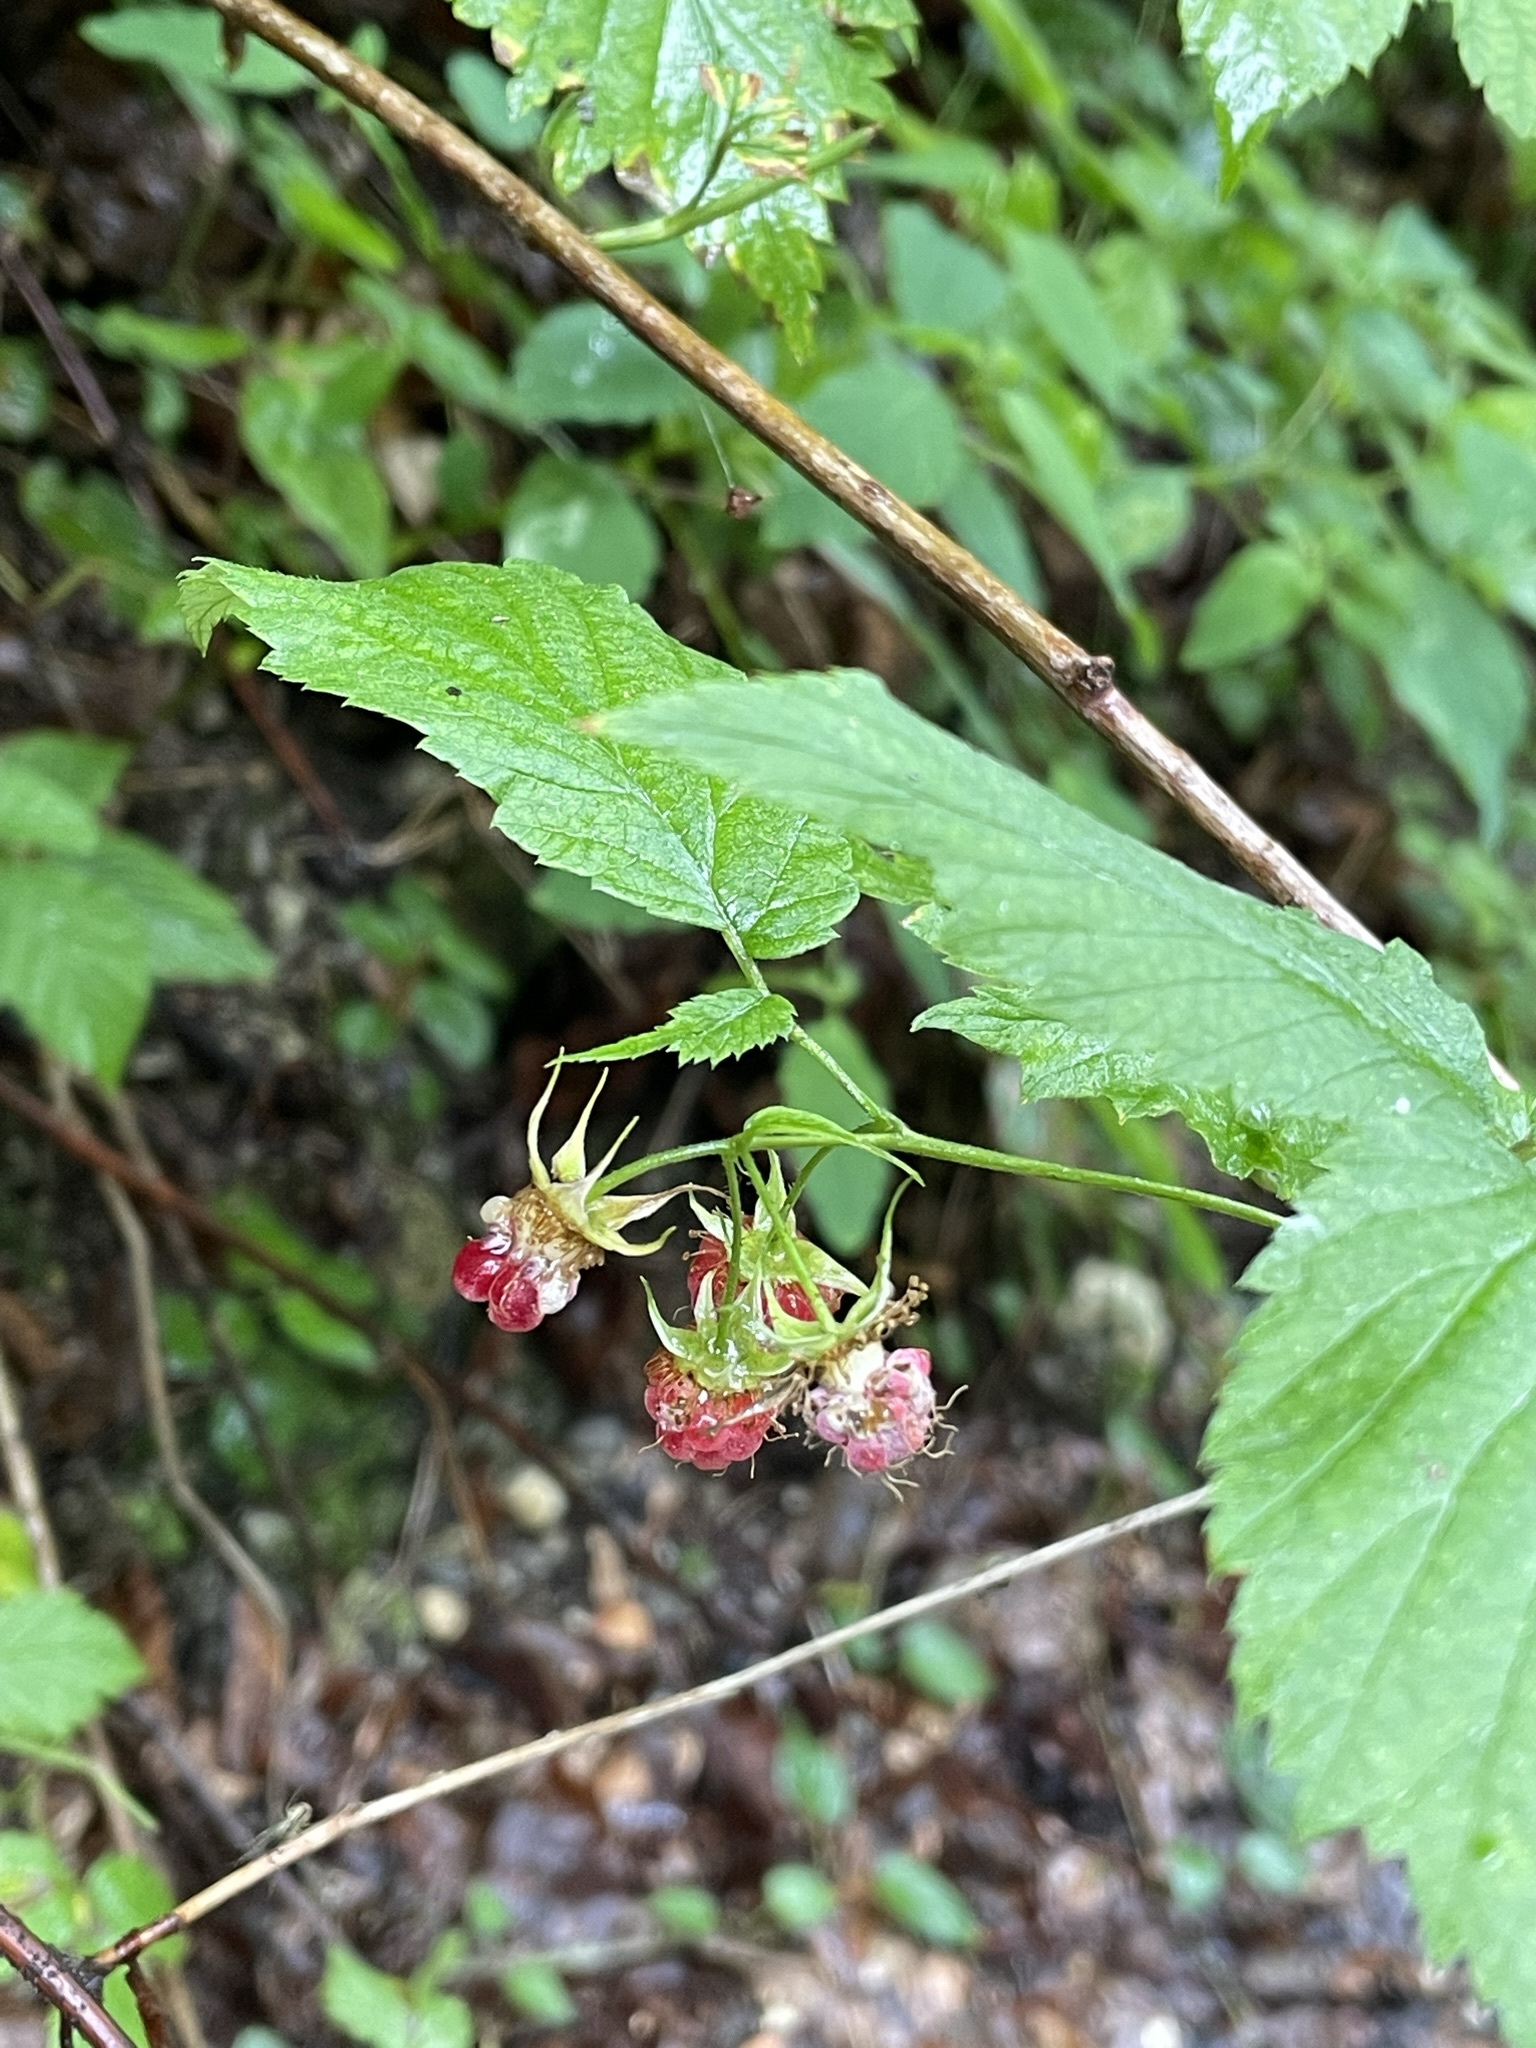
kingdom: Plantae
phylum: Tracheophyta
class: Magnoliopsida
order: Rosales
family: Rosaceae
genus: Rubus
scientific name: Rubus idaeus
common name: Raspberry
